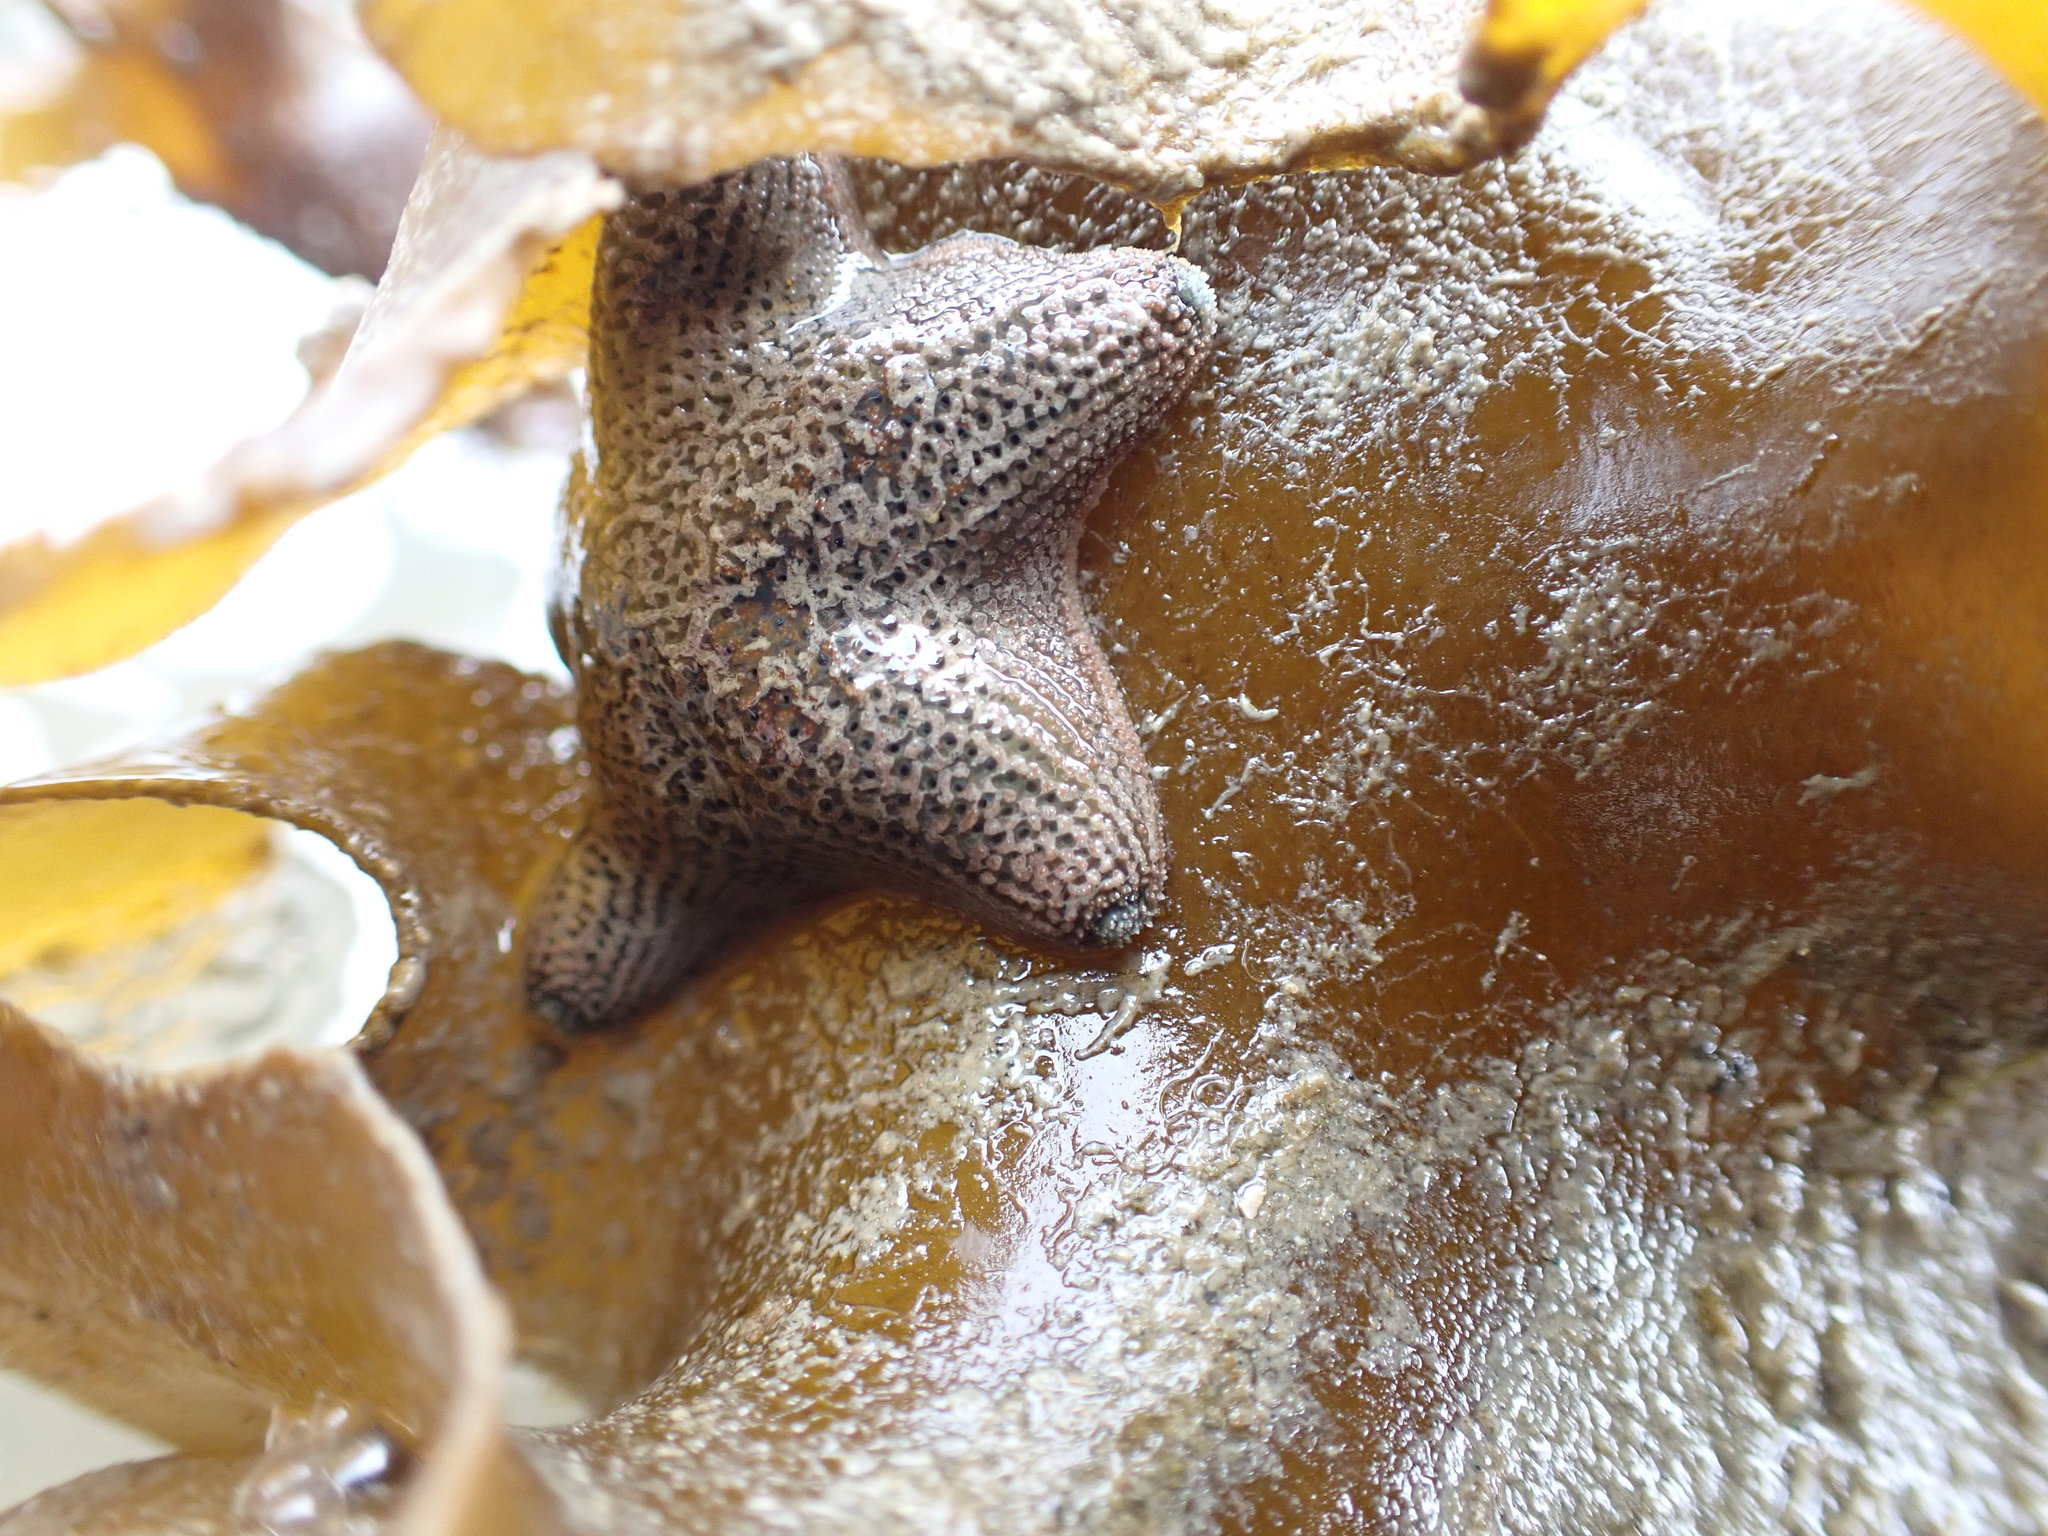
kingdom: Animalia
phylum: Echinodermata
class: Asteroidea
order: Valvatida
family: Asterinidae
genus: Patiriella
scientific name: Patiriella regularis
